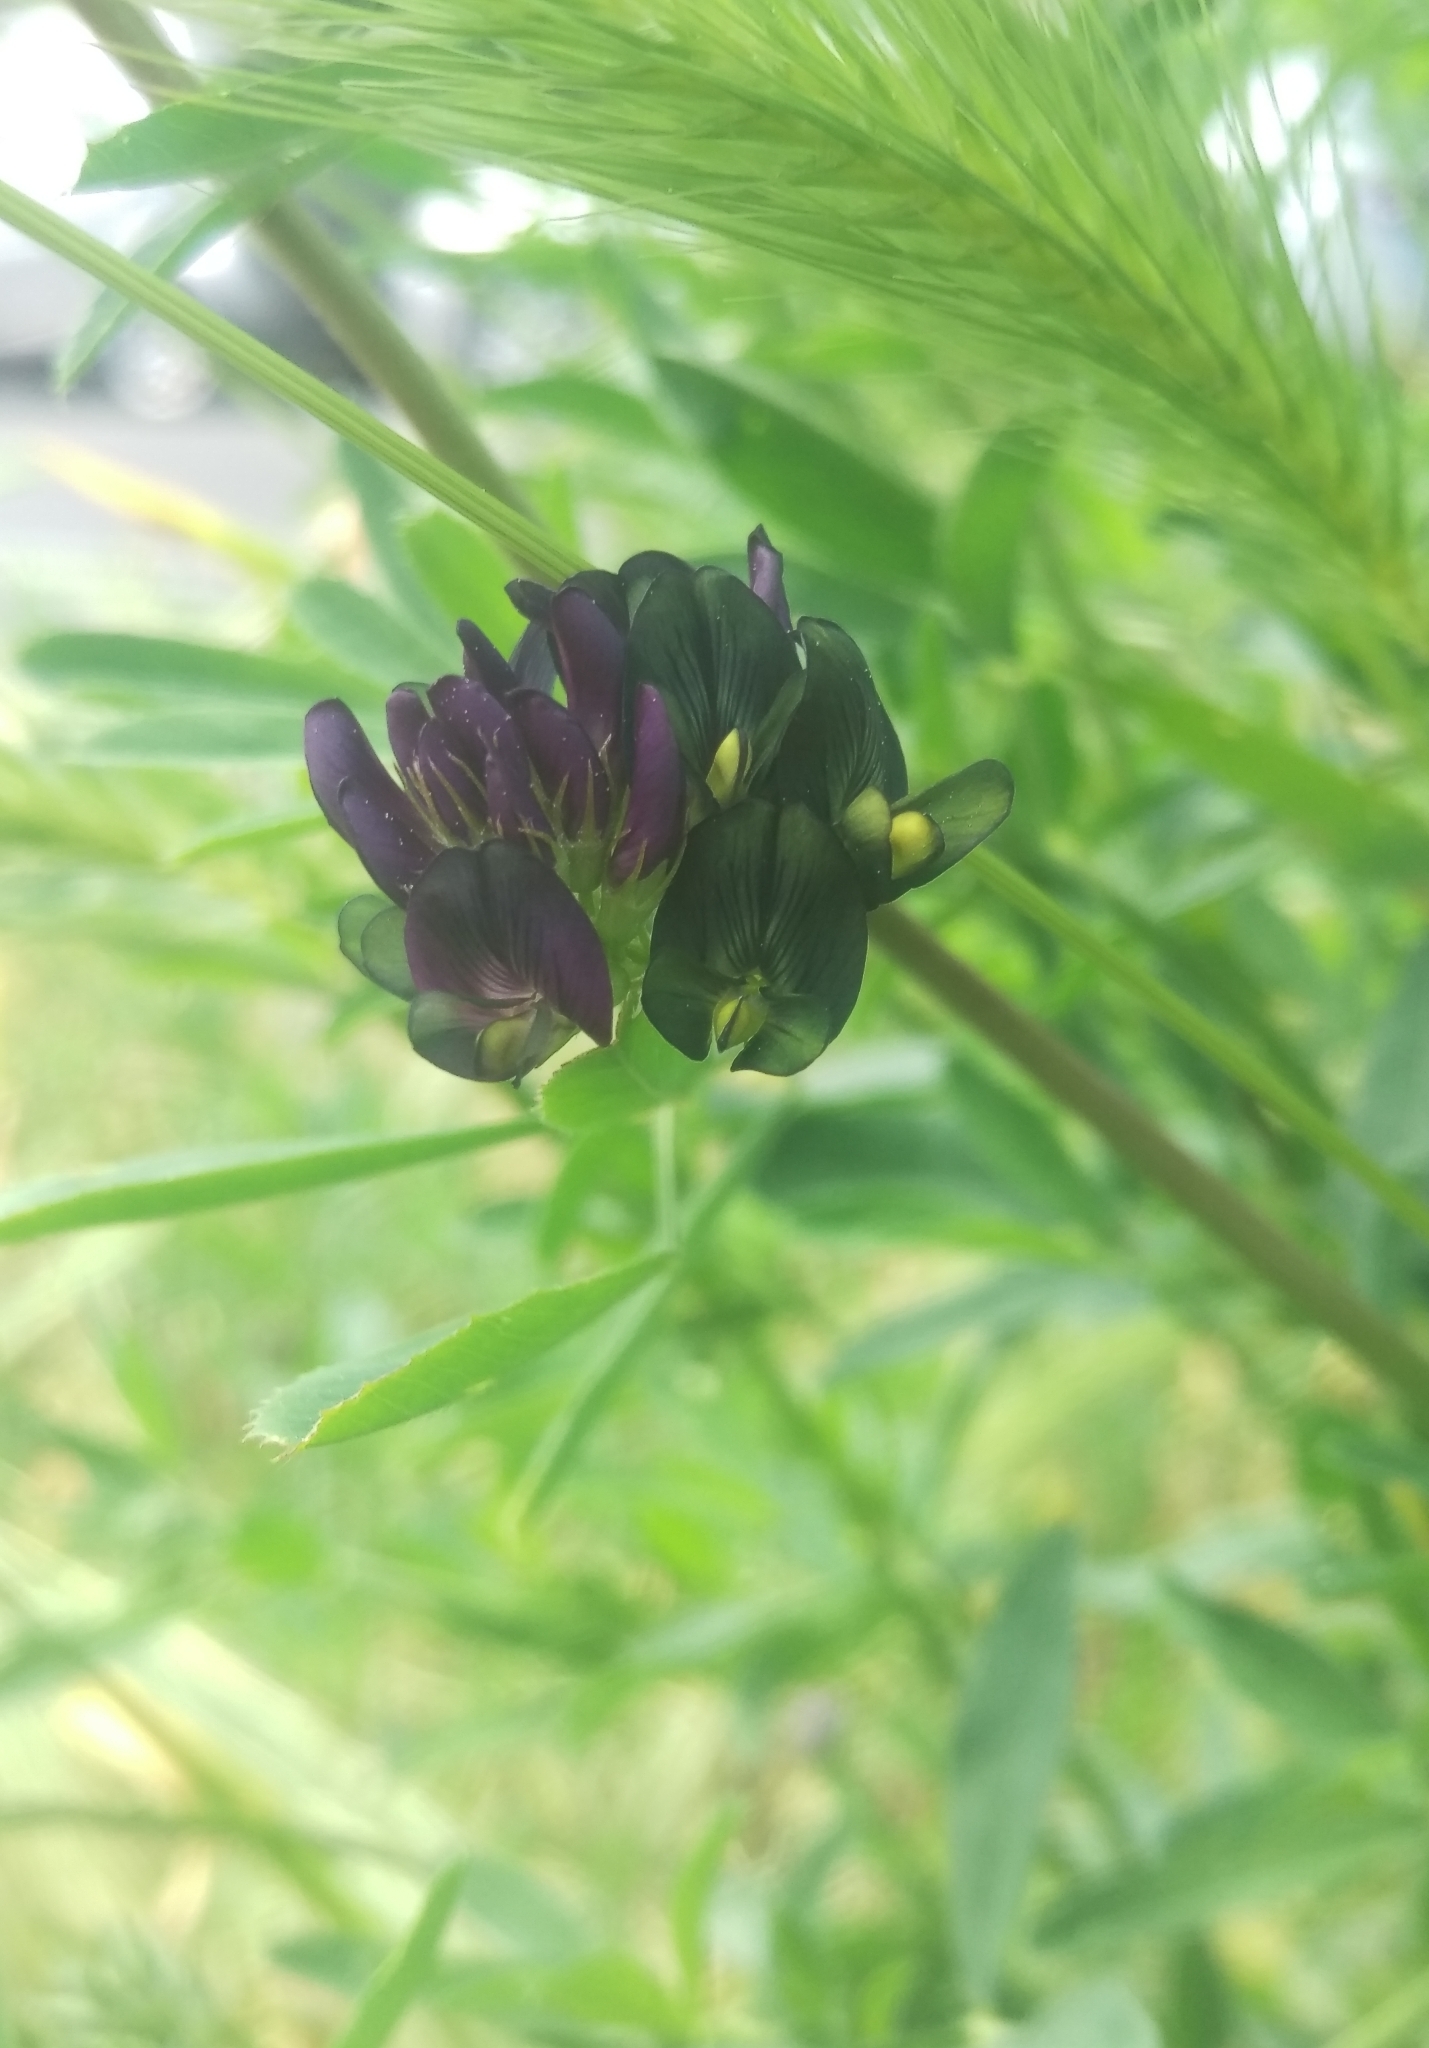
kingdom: Plantae
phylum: Tracheophyta
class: Magnoliopsida
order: Fabales
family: Fabaceae
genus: Medicago
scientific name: Medicago varia
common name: Sand lucerne
